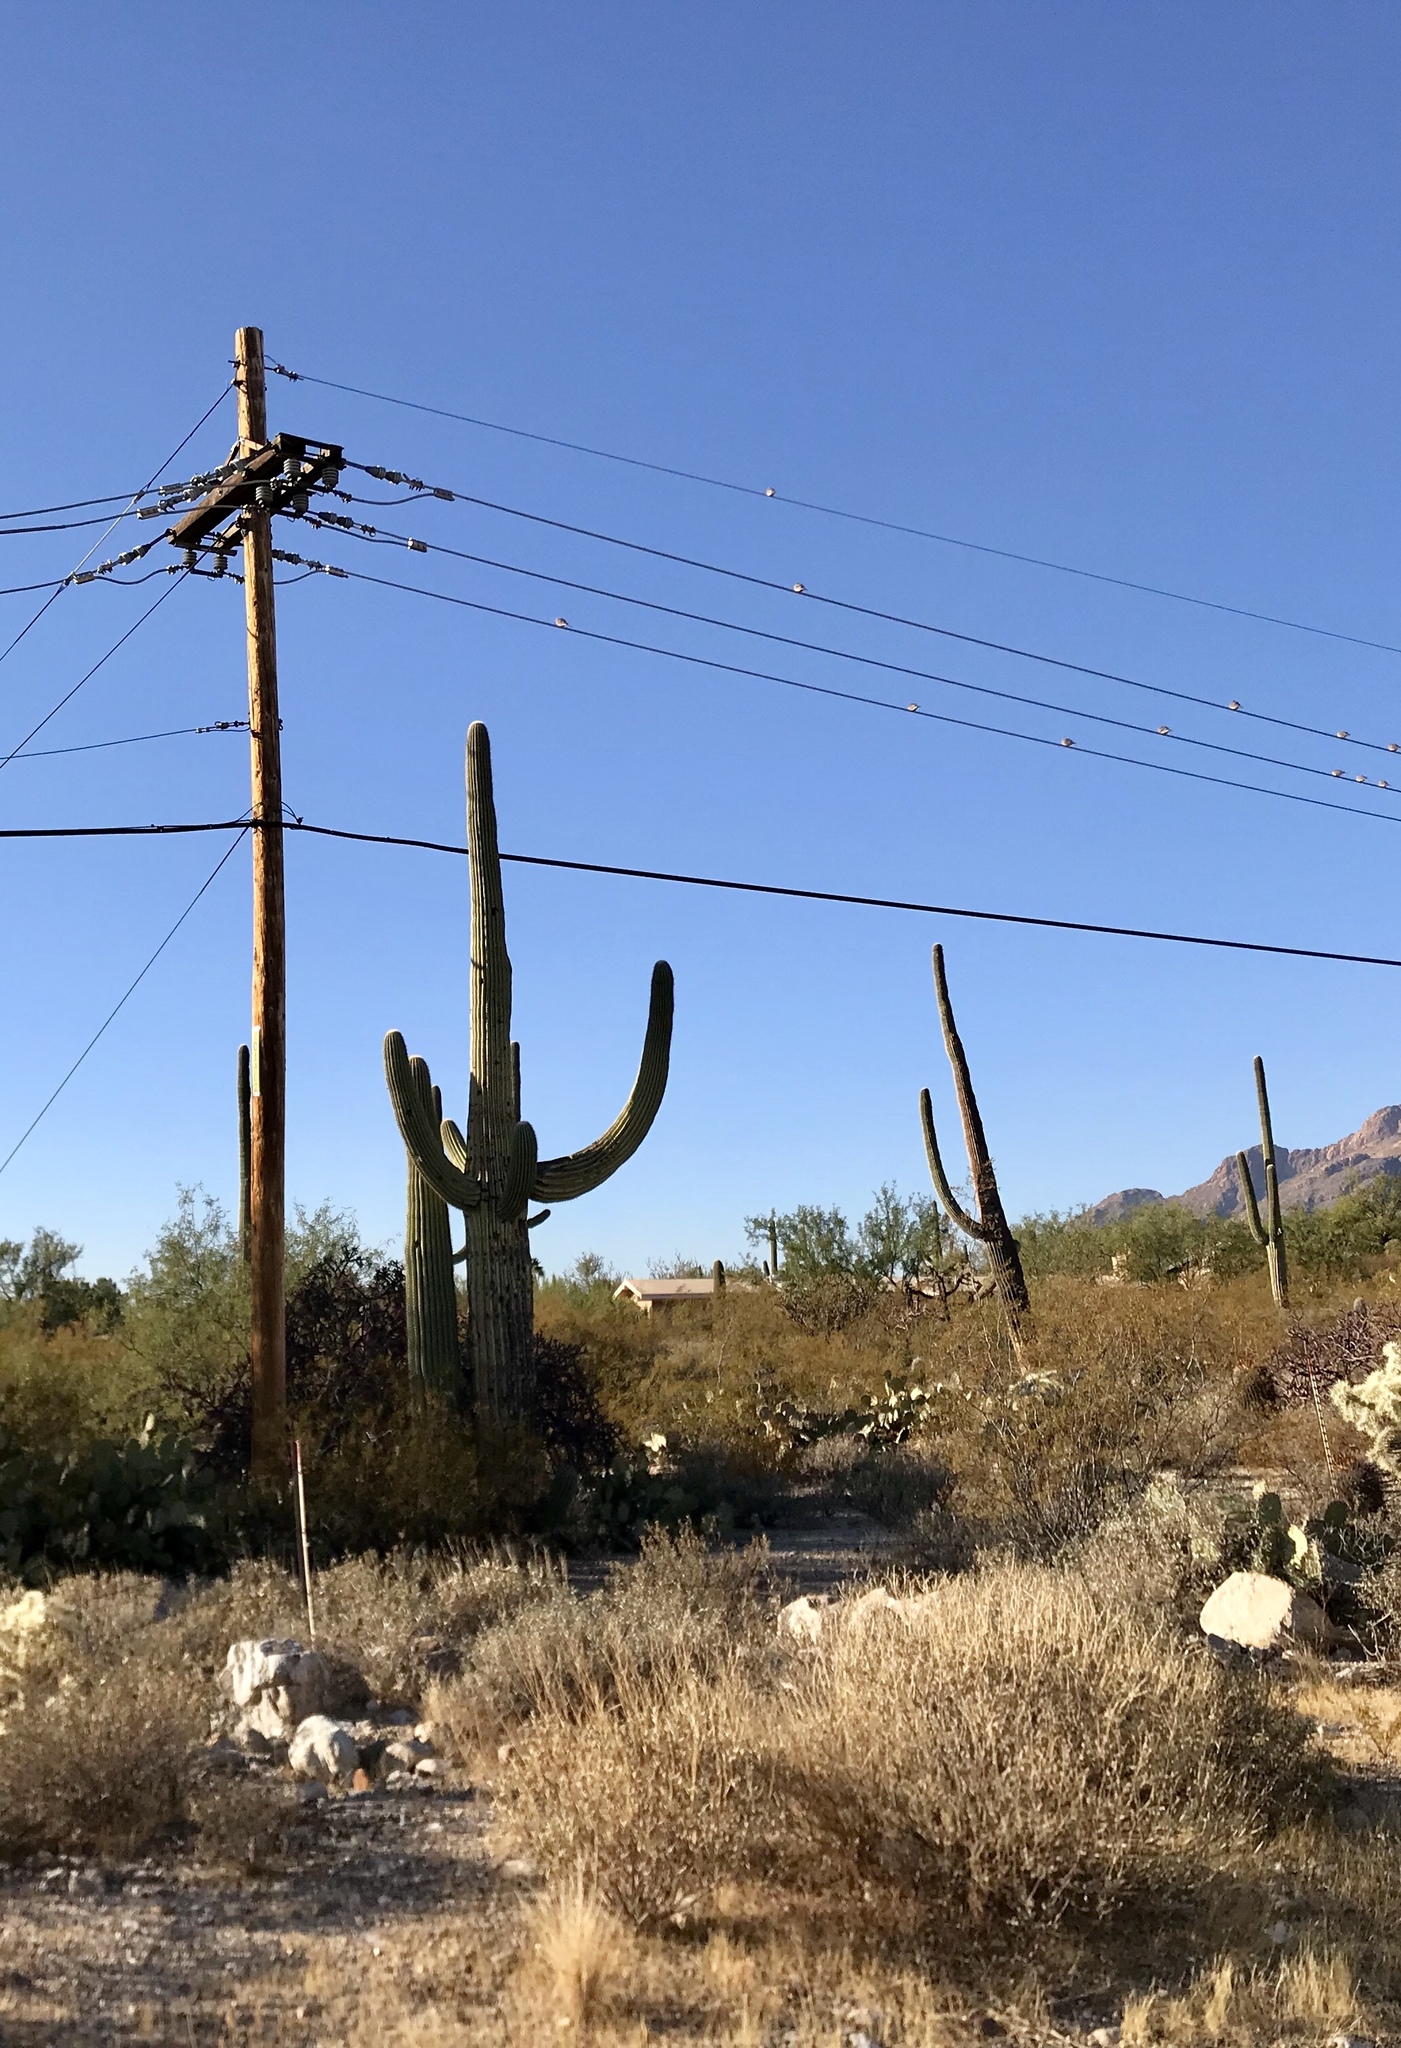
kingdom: Plantae
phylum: Tracheophyta
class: Magnoliopsida
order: Caryophyllales
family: Cactaceae
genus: Carnegiea
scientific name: Carnegiea gigantea
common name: Saguaro
